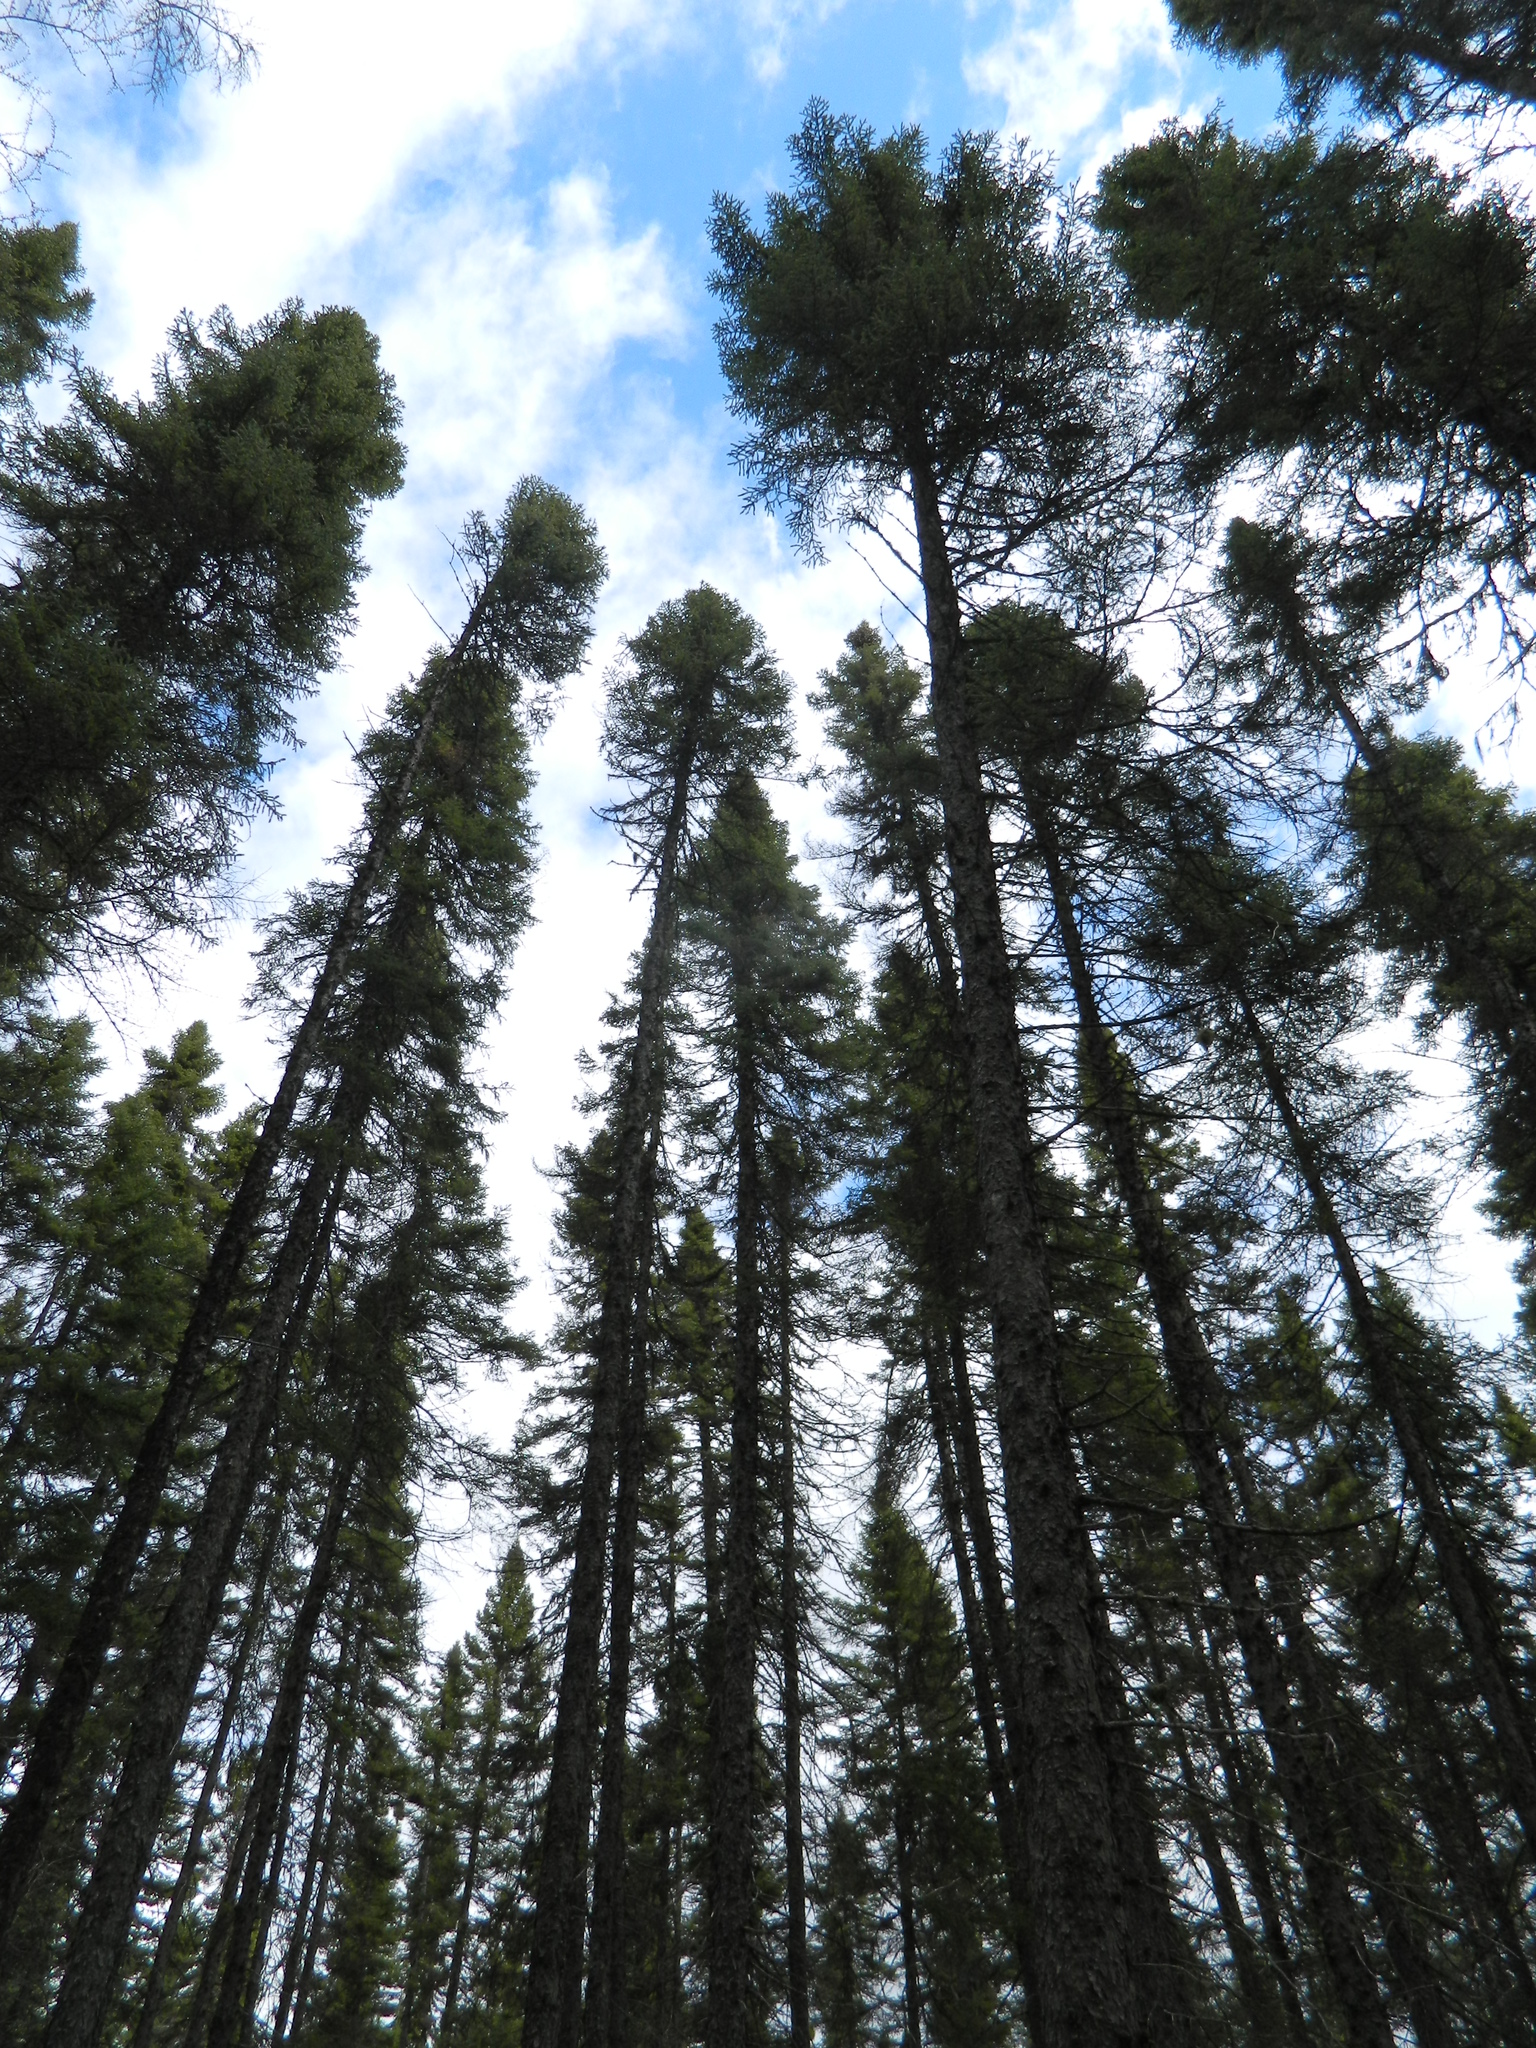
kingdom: Plantae
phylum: Tracheophyta
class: Pinopsida
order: Pinales
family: Pinaceae
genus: Picea
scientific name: Picea mariana
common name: Black spruce
